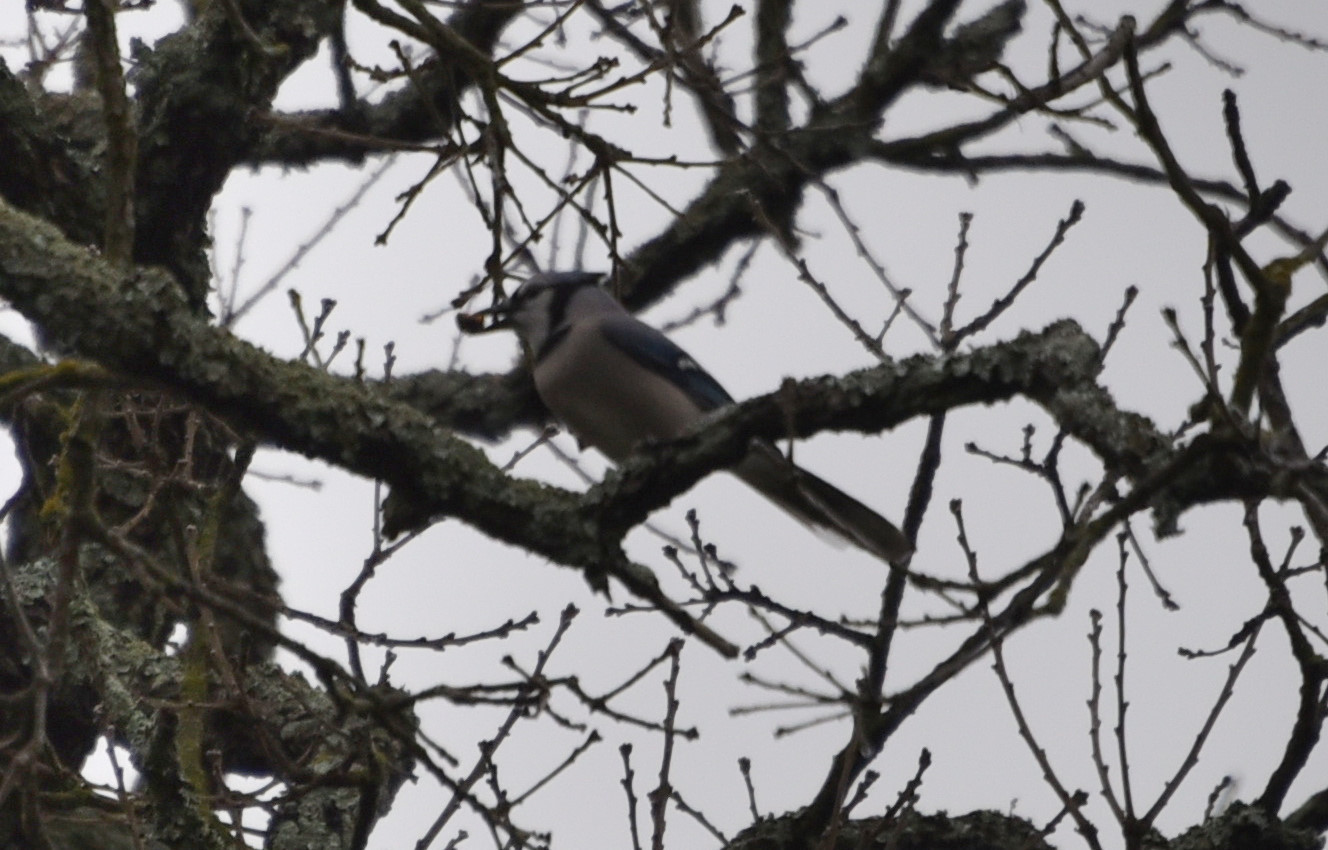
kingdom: Animalia
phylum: Chordata
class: Aves
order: Passeriformes
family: Corvidae
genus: Cyanocitta
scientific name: Cyanocitta cristata
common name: Blue jay
